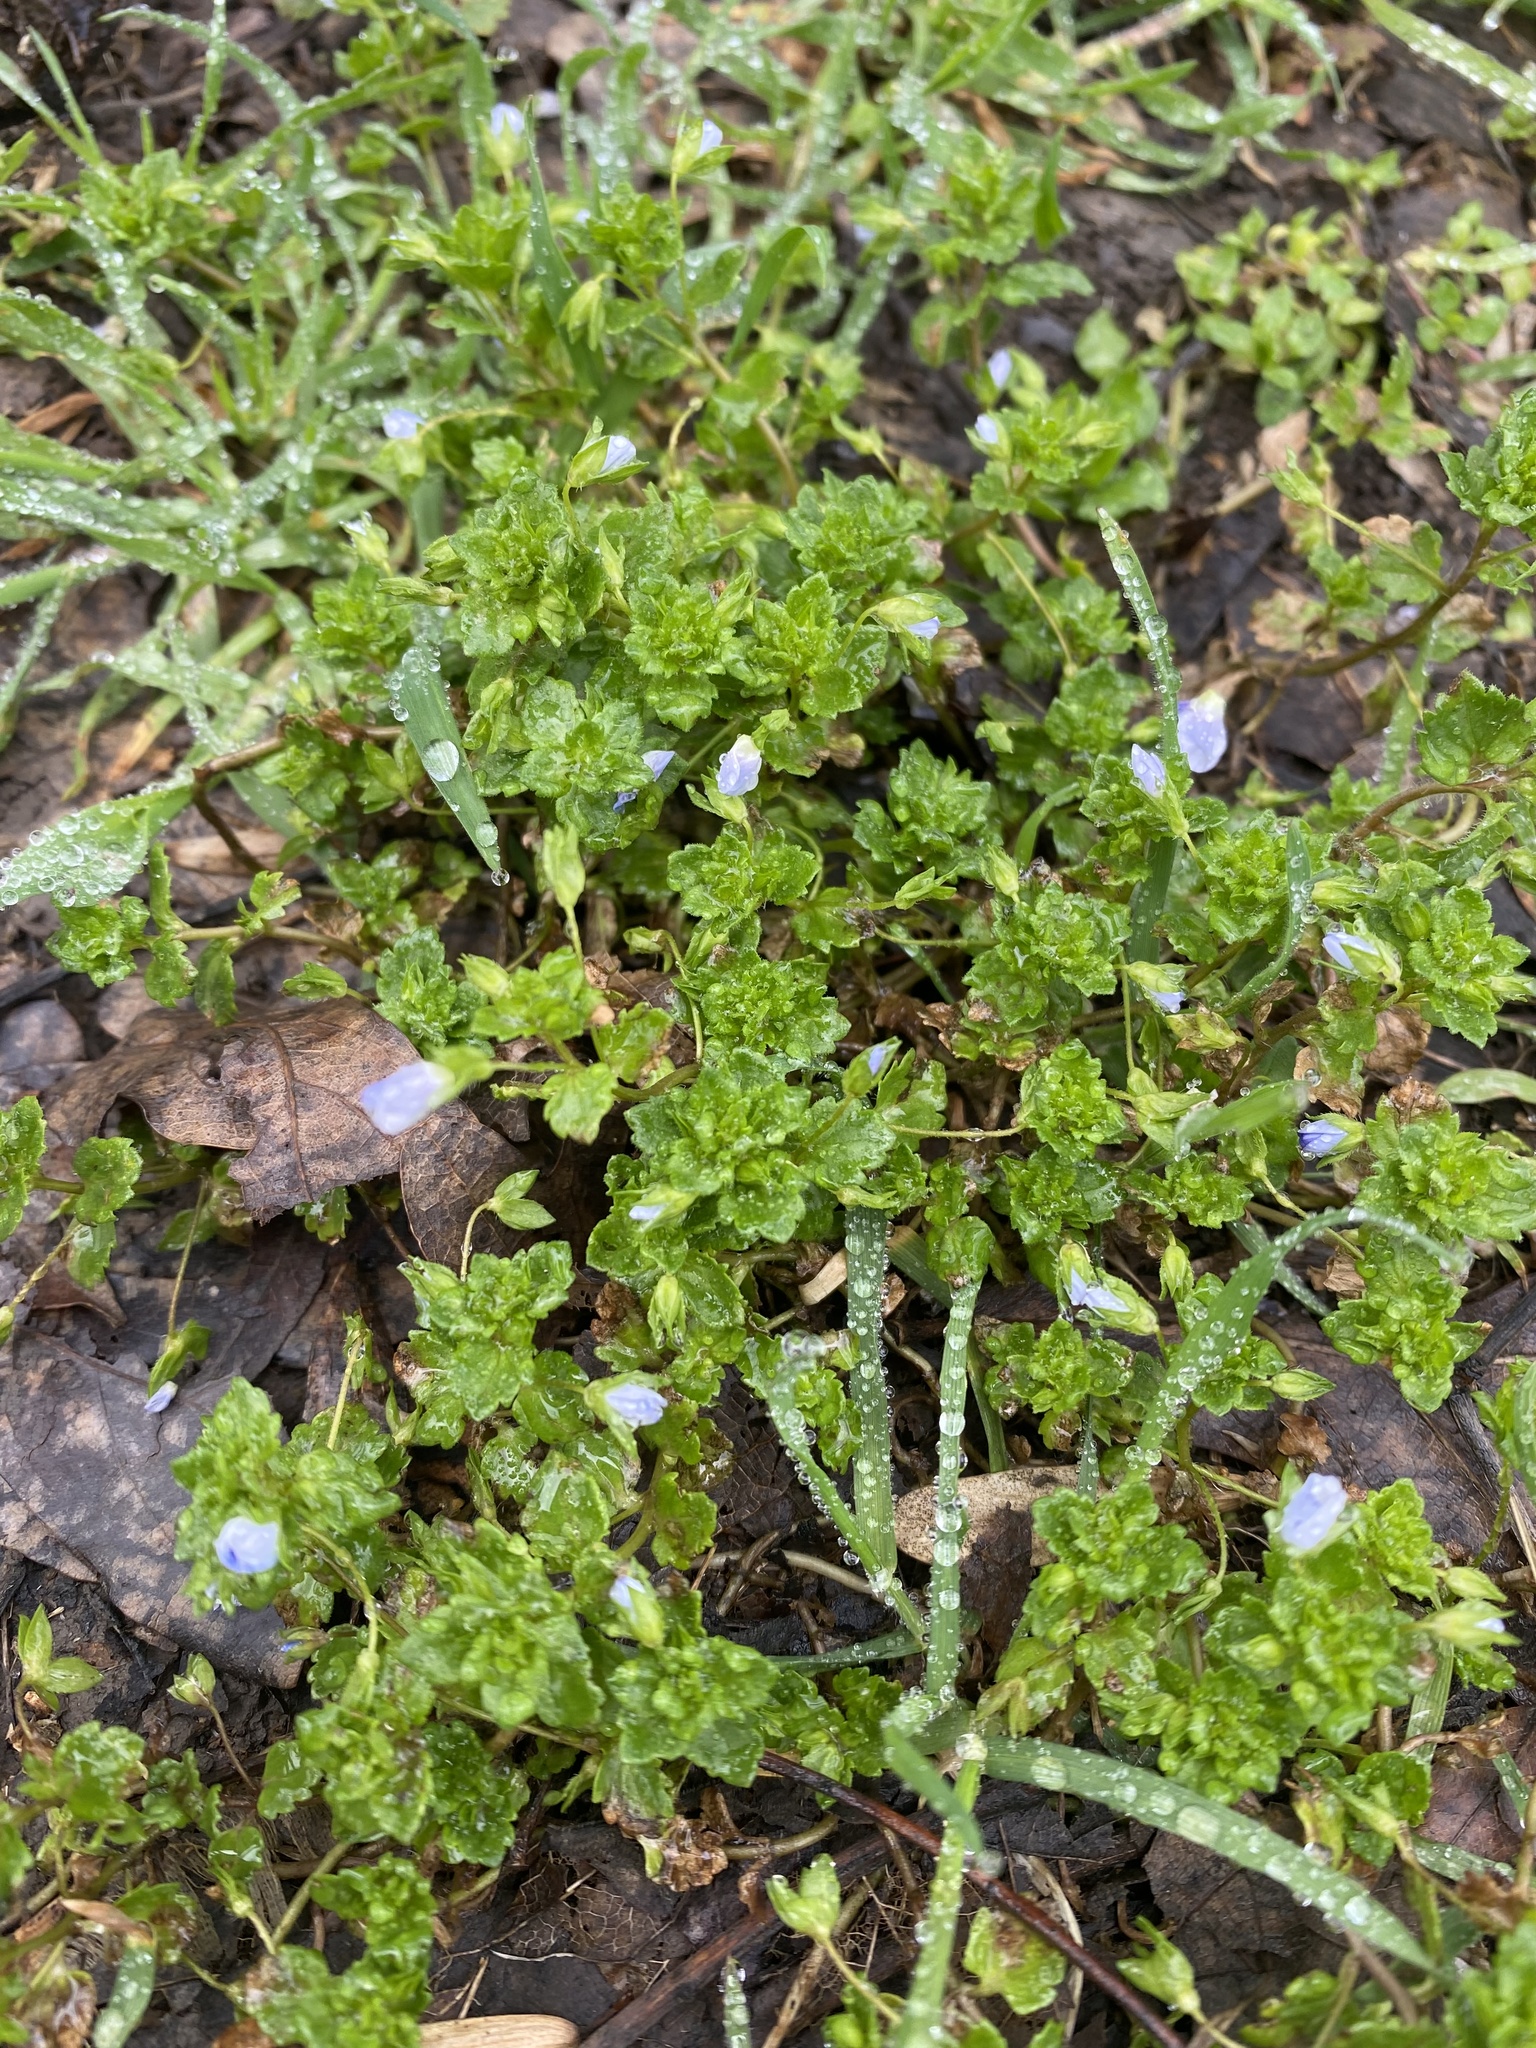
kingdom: Plantae
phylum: Tracheophyta
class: Magnoliopsida
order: Lamiales
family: Plantaginaceae
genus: Veronica
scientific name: Veronica persica
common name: Common field-speedwell
